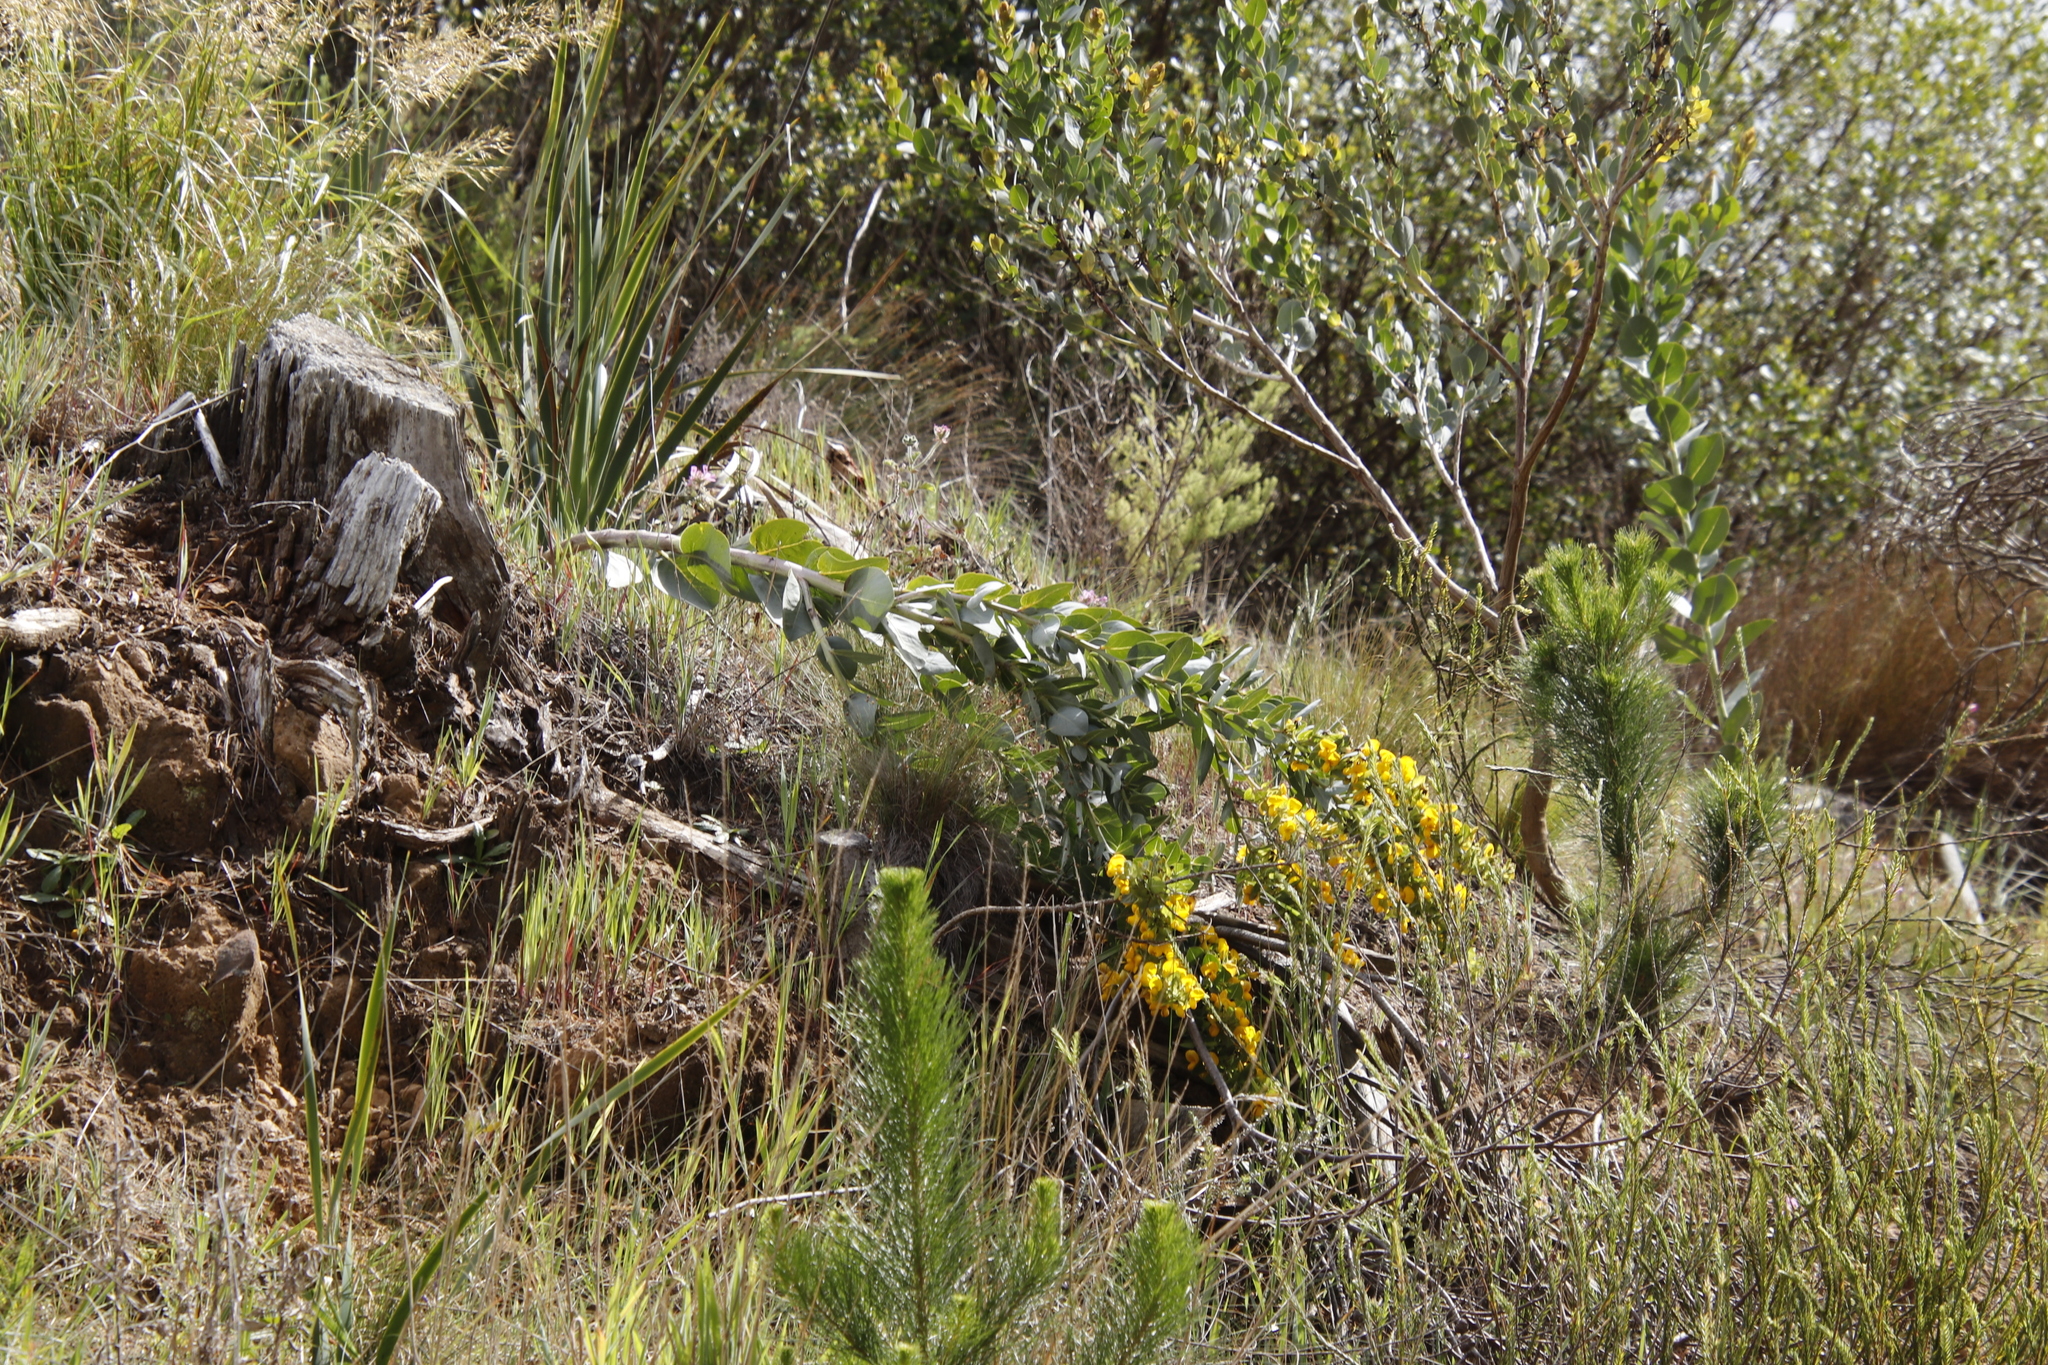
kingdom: Plantae
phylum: Tracheophyta
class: Magnoliopsida
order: Fabales
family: Fabaceae
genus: Rafnia
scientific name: Rafnia triflora
